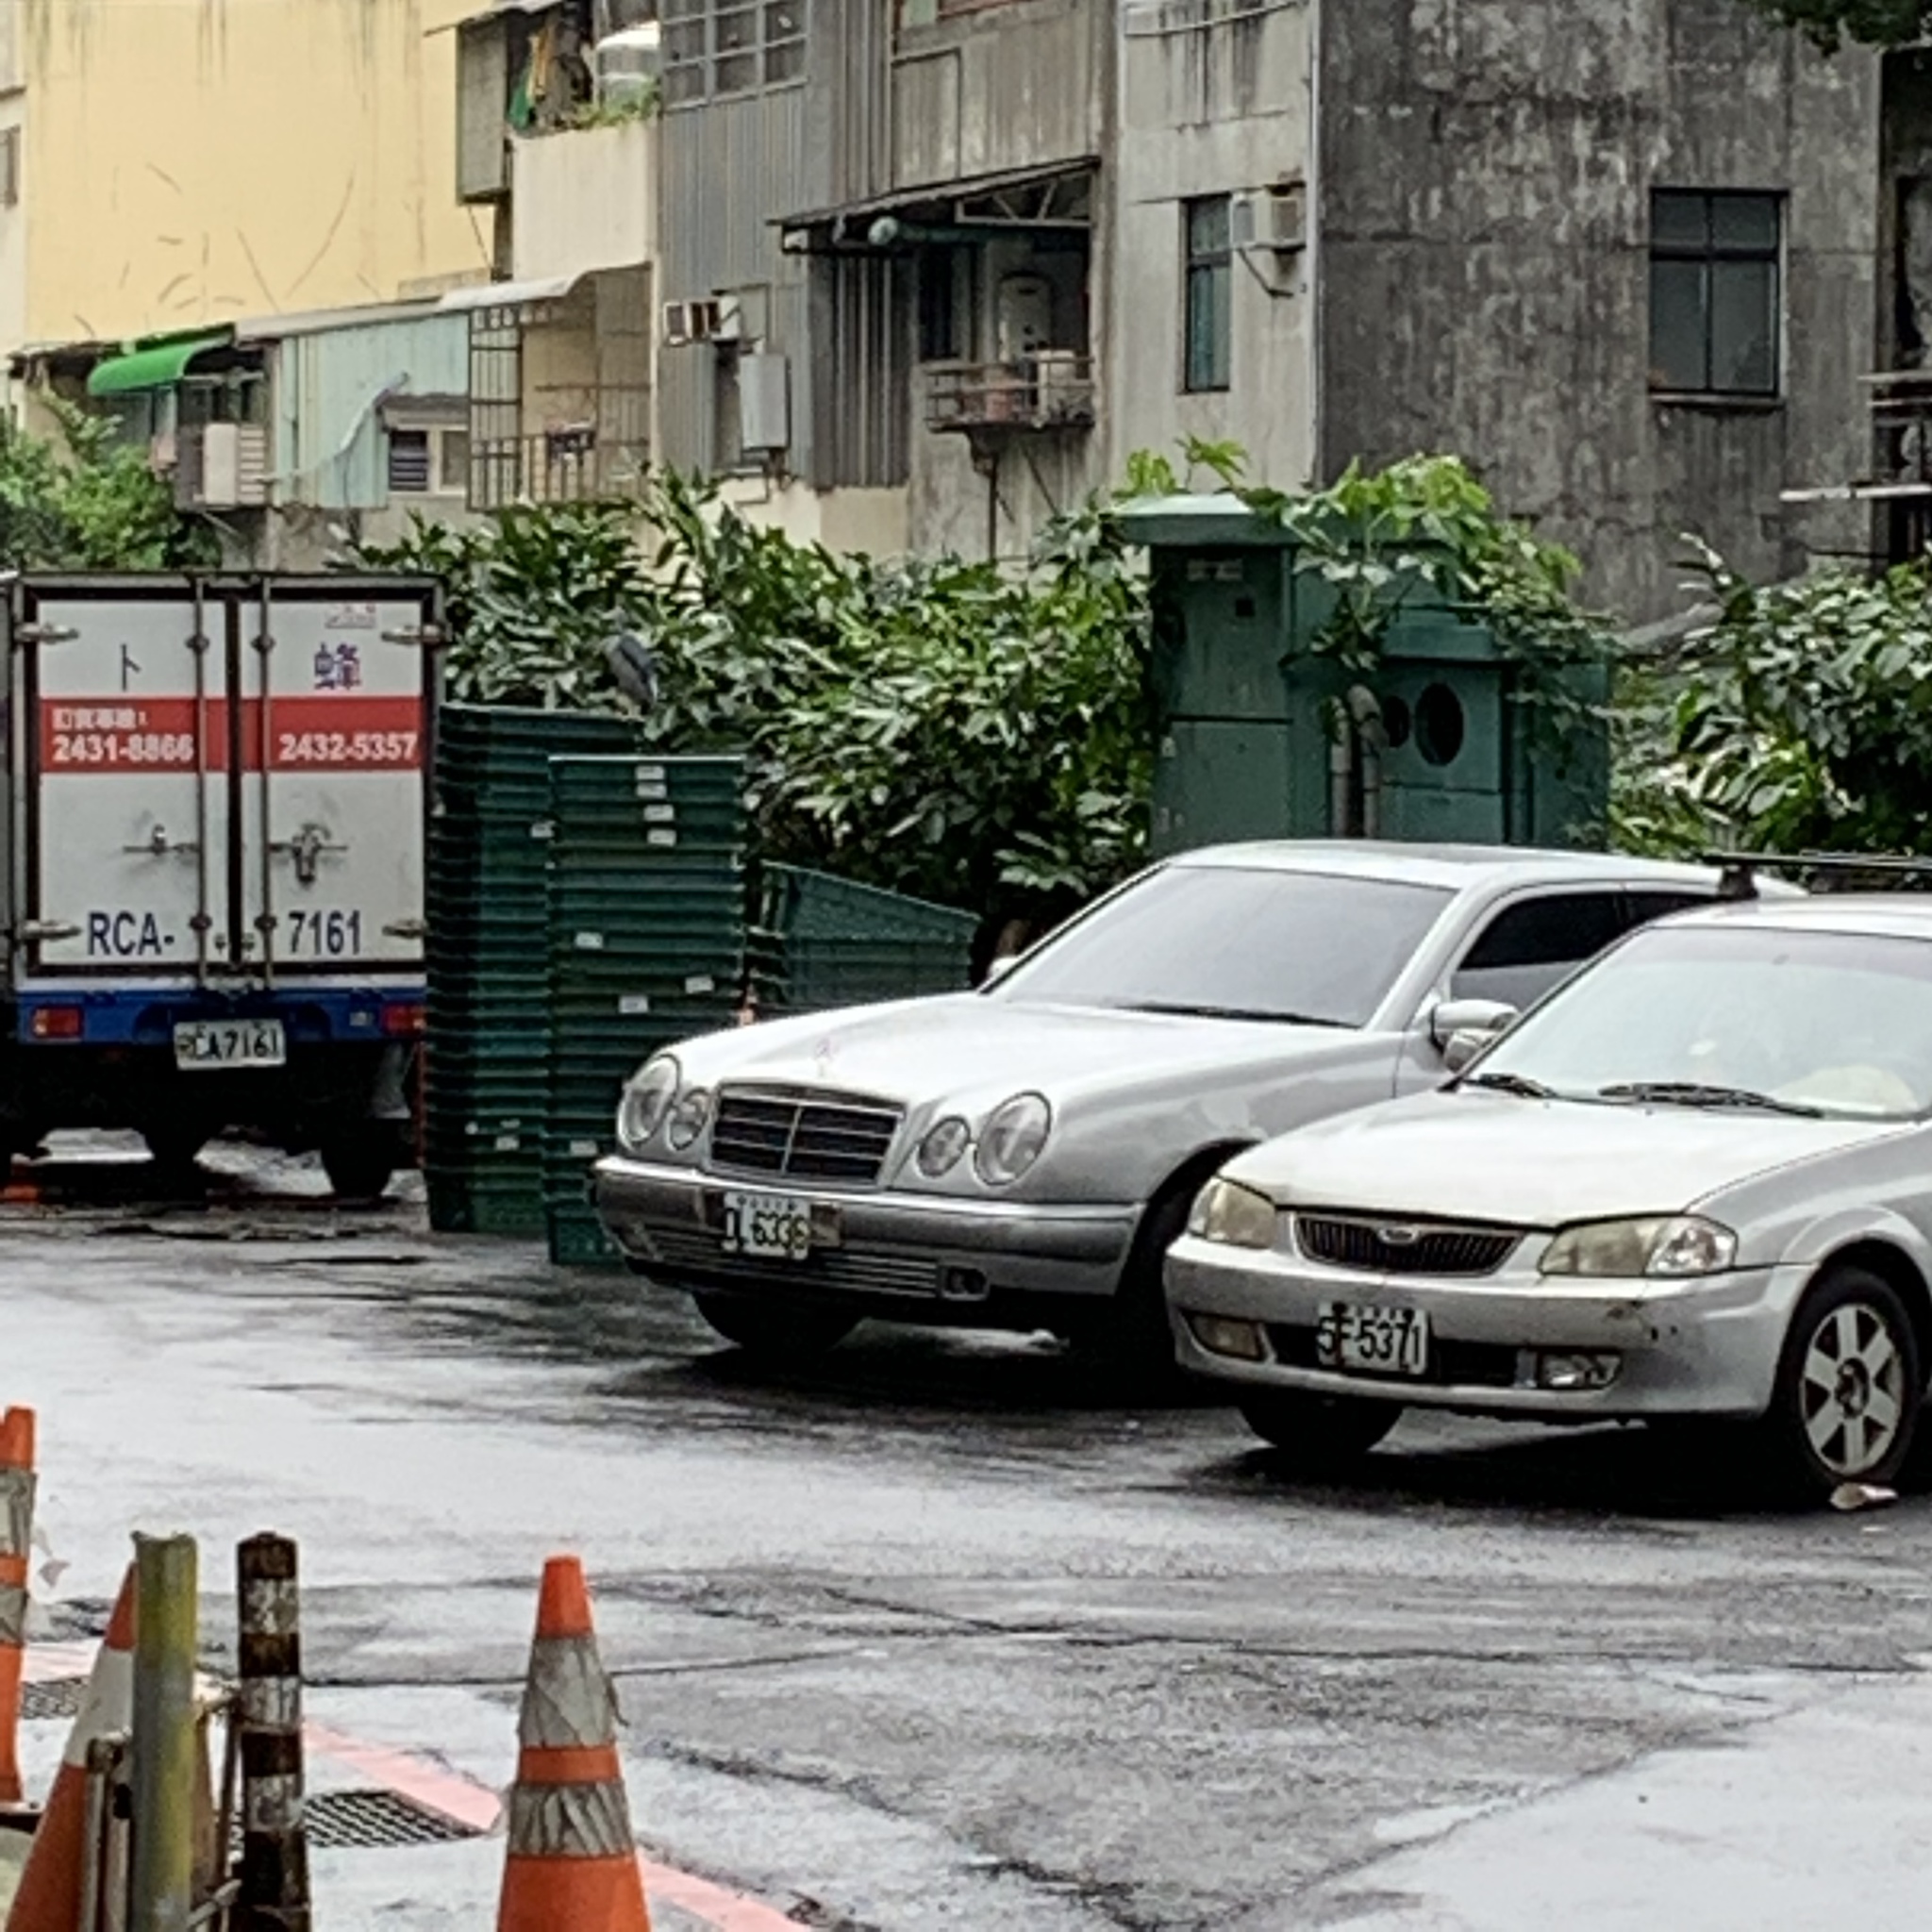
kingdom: Animalia
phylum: Chordata
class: Aves
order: Pelecaniformes
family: Ardeidae
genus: Nycticorax
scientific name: Nycticorax nycticorax
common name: Black-crowned night heron
